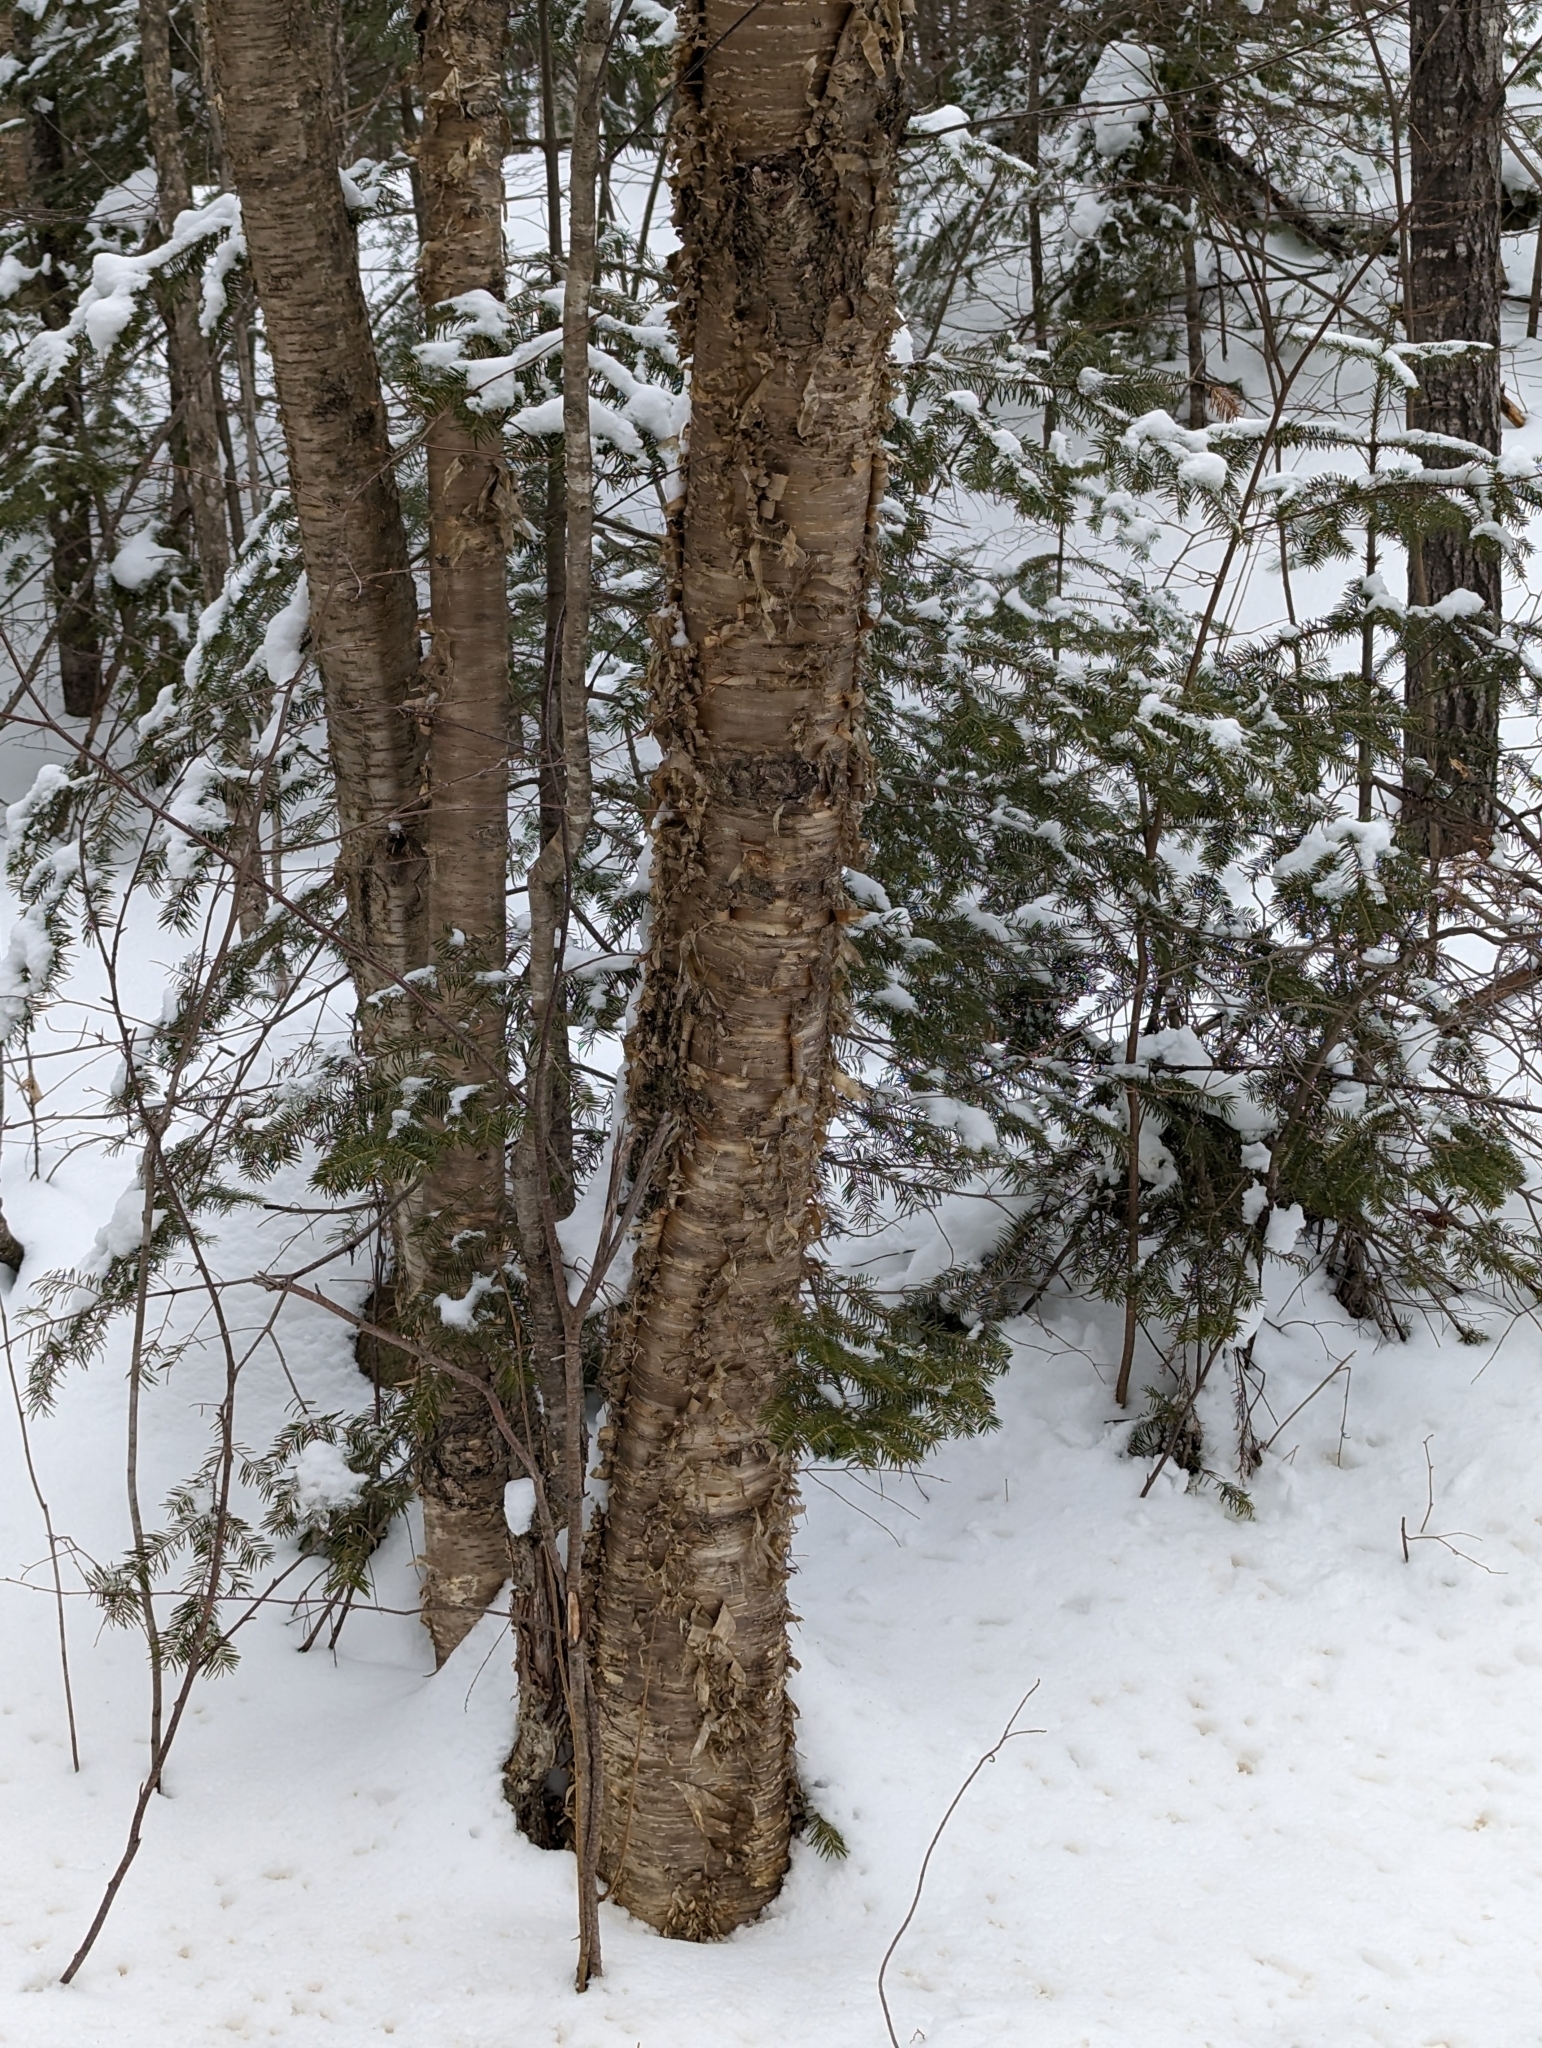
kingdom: Plantae
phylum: Tracheophyta
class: Magnoliopsida
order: Fagales
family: Betulaceae
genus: Betula
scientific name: Betula alleghaniensis
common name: Yellow birch
